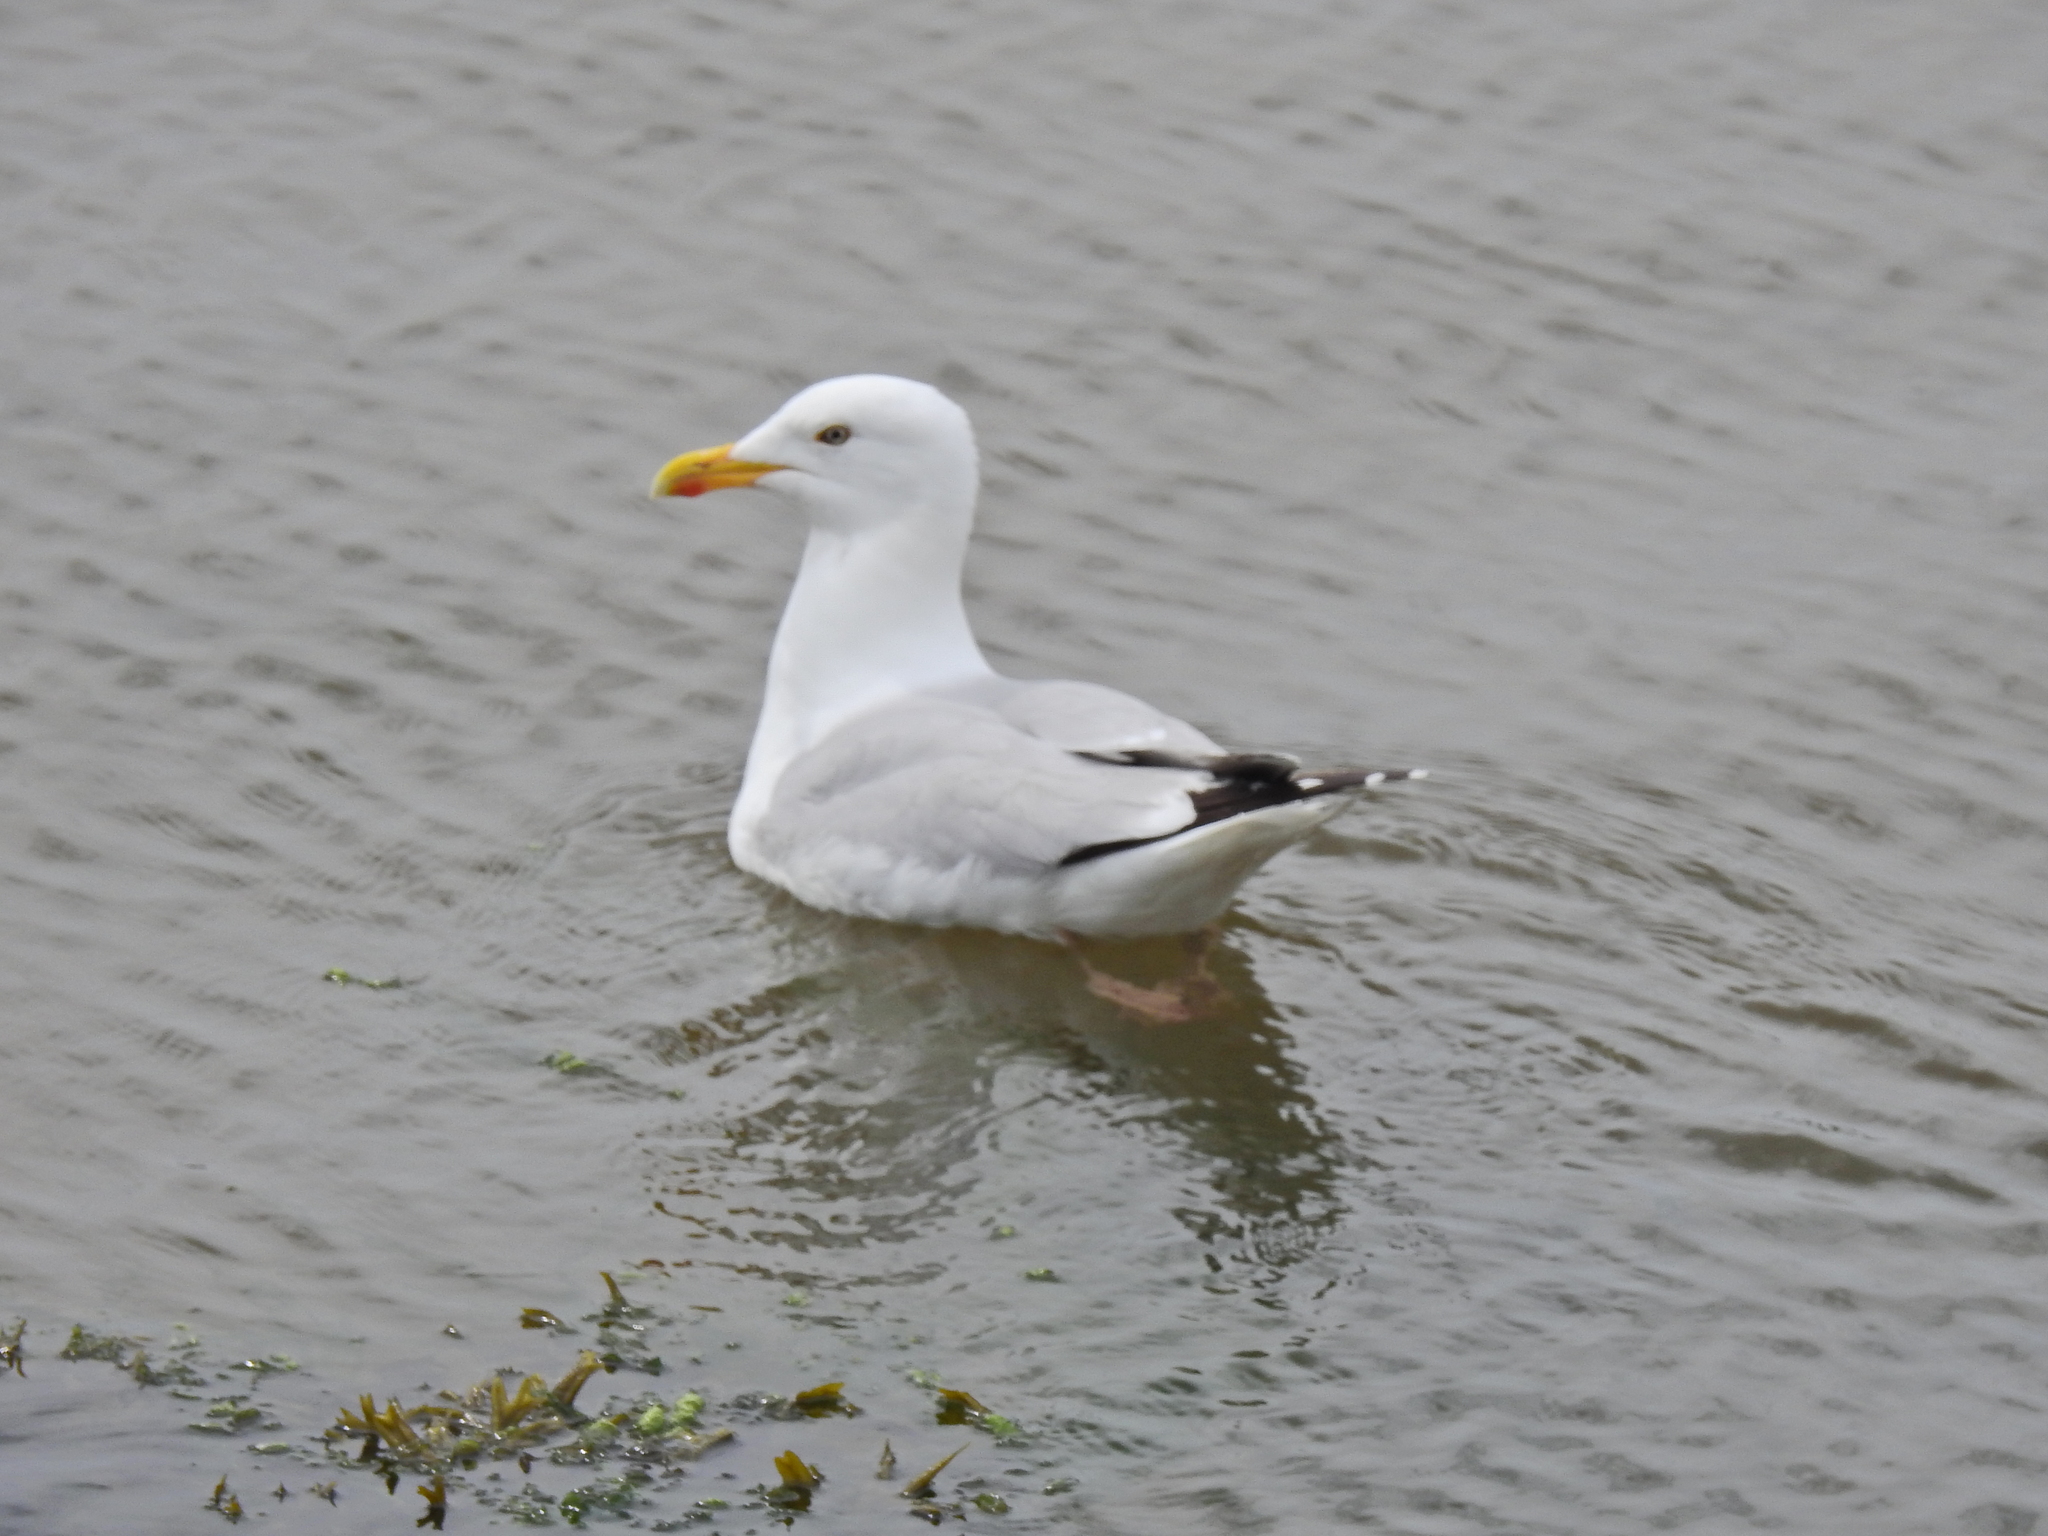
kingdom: Animalia
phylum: Chordata
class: Aves
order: Charadriiformes
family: Laridae
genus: Larus
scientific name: Larus argentatus
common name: Herring gull
